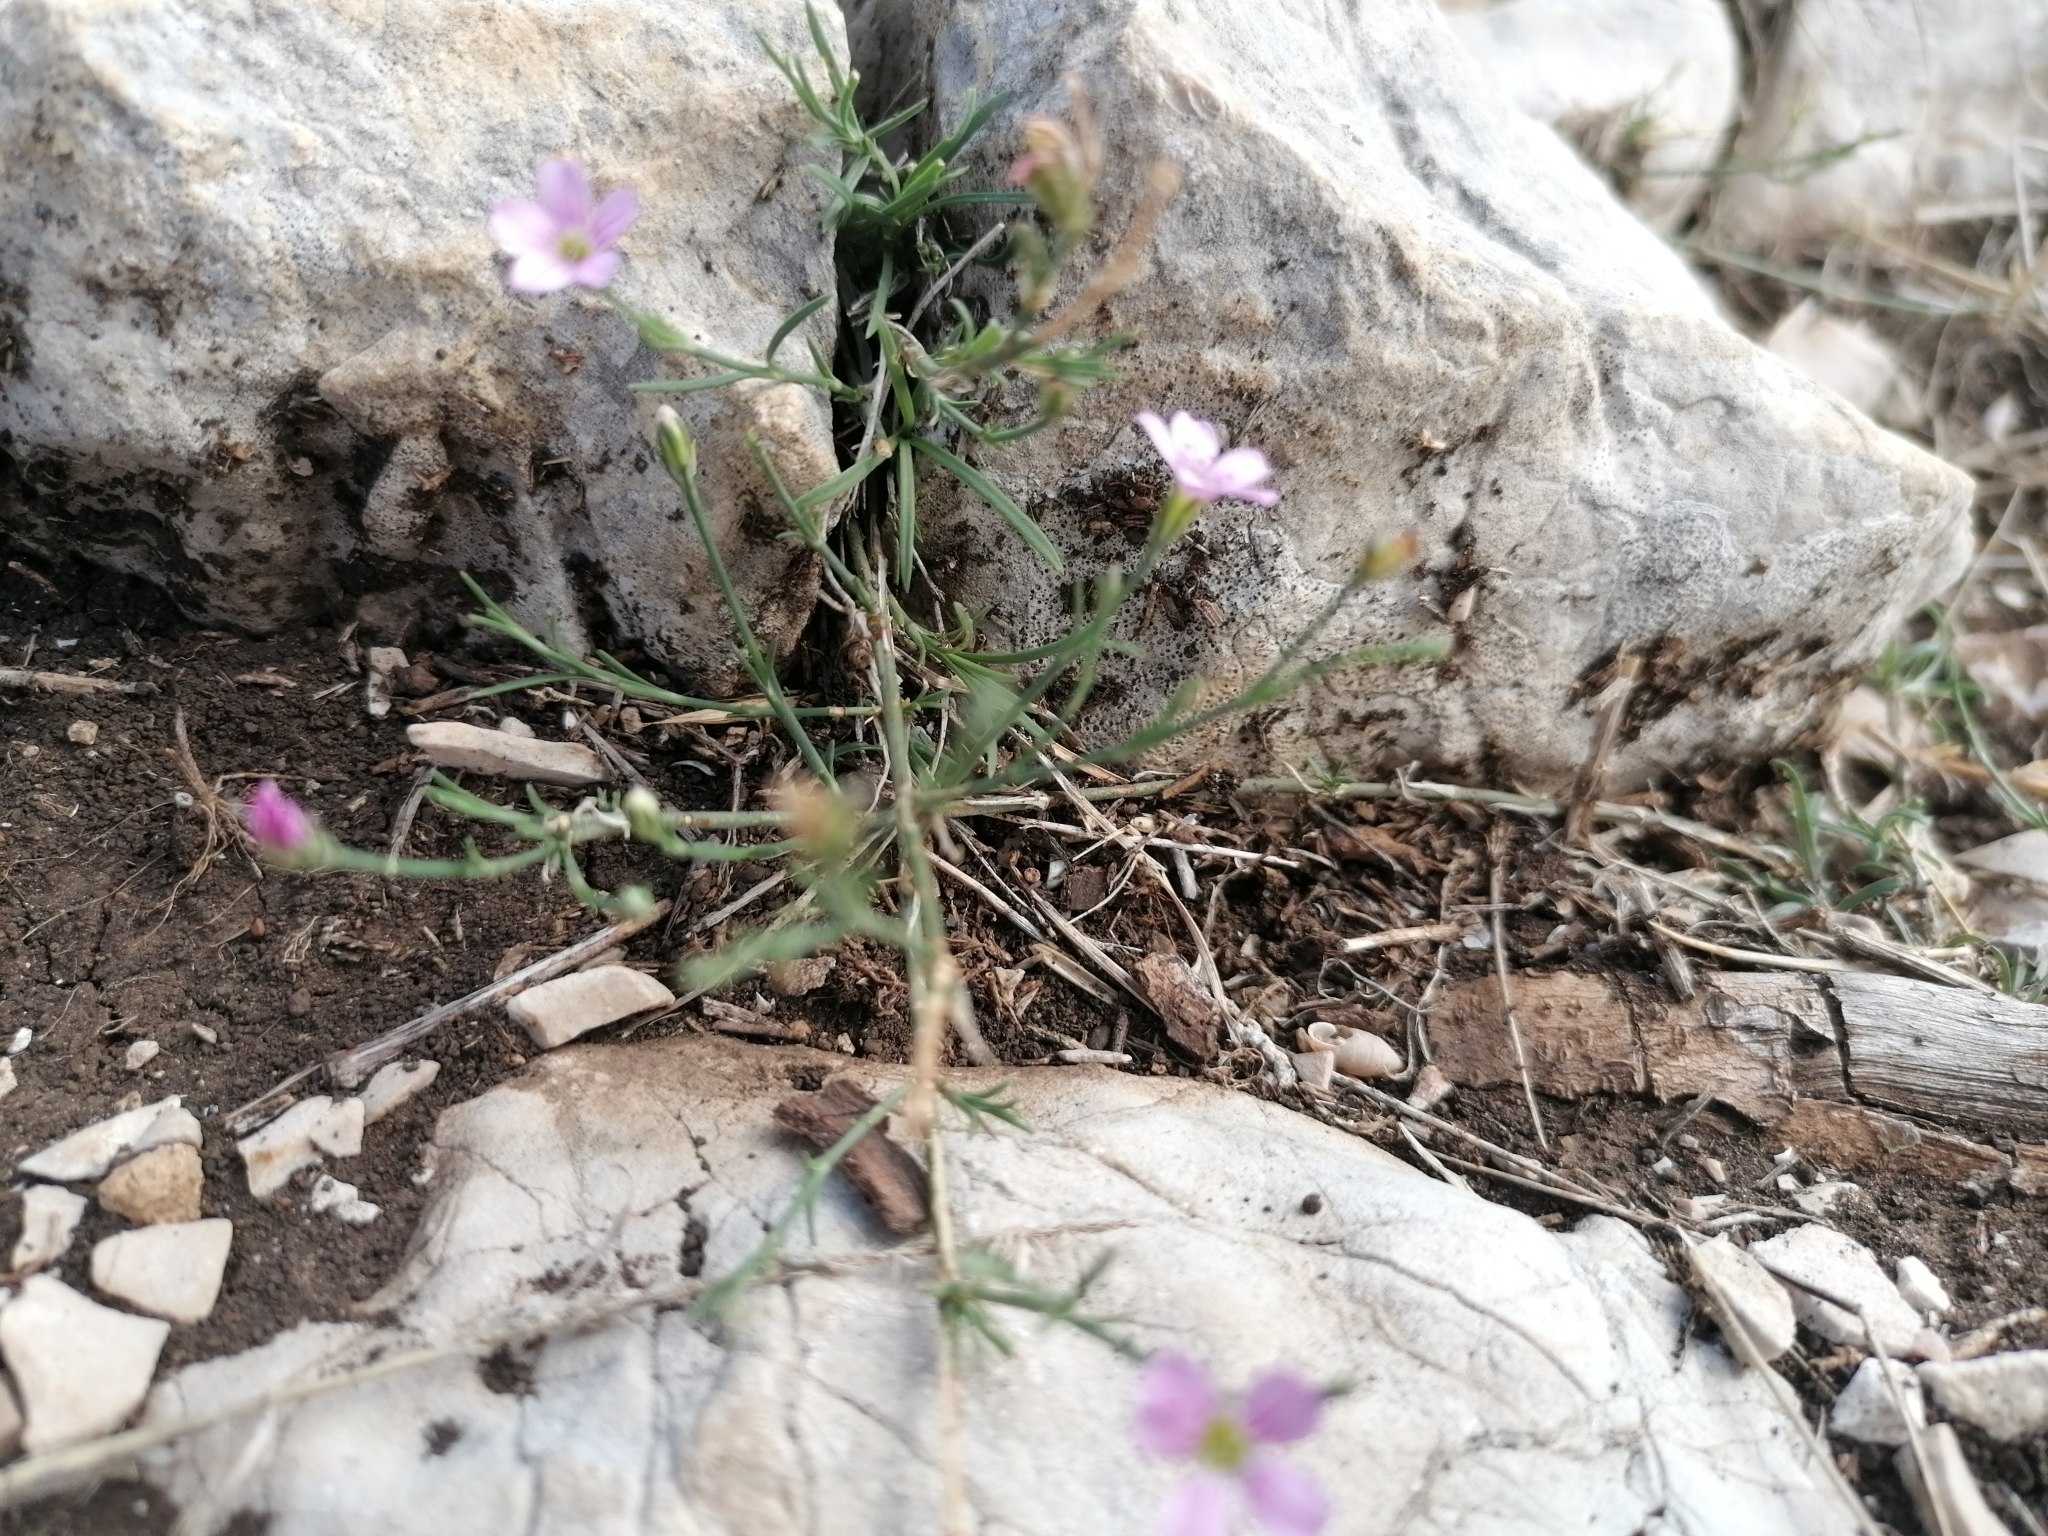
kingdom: Plantae
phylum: Tracheophyta
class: Magnoliopsida
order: Caryophyllales
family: Caryophyllaceae
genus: Petrorhagia
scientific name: Petrorhagia saxifraga
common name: Tunicflower
